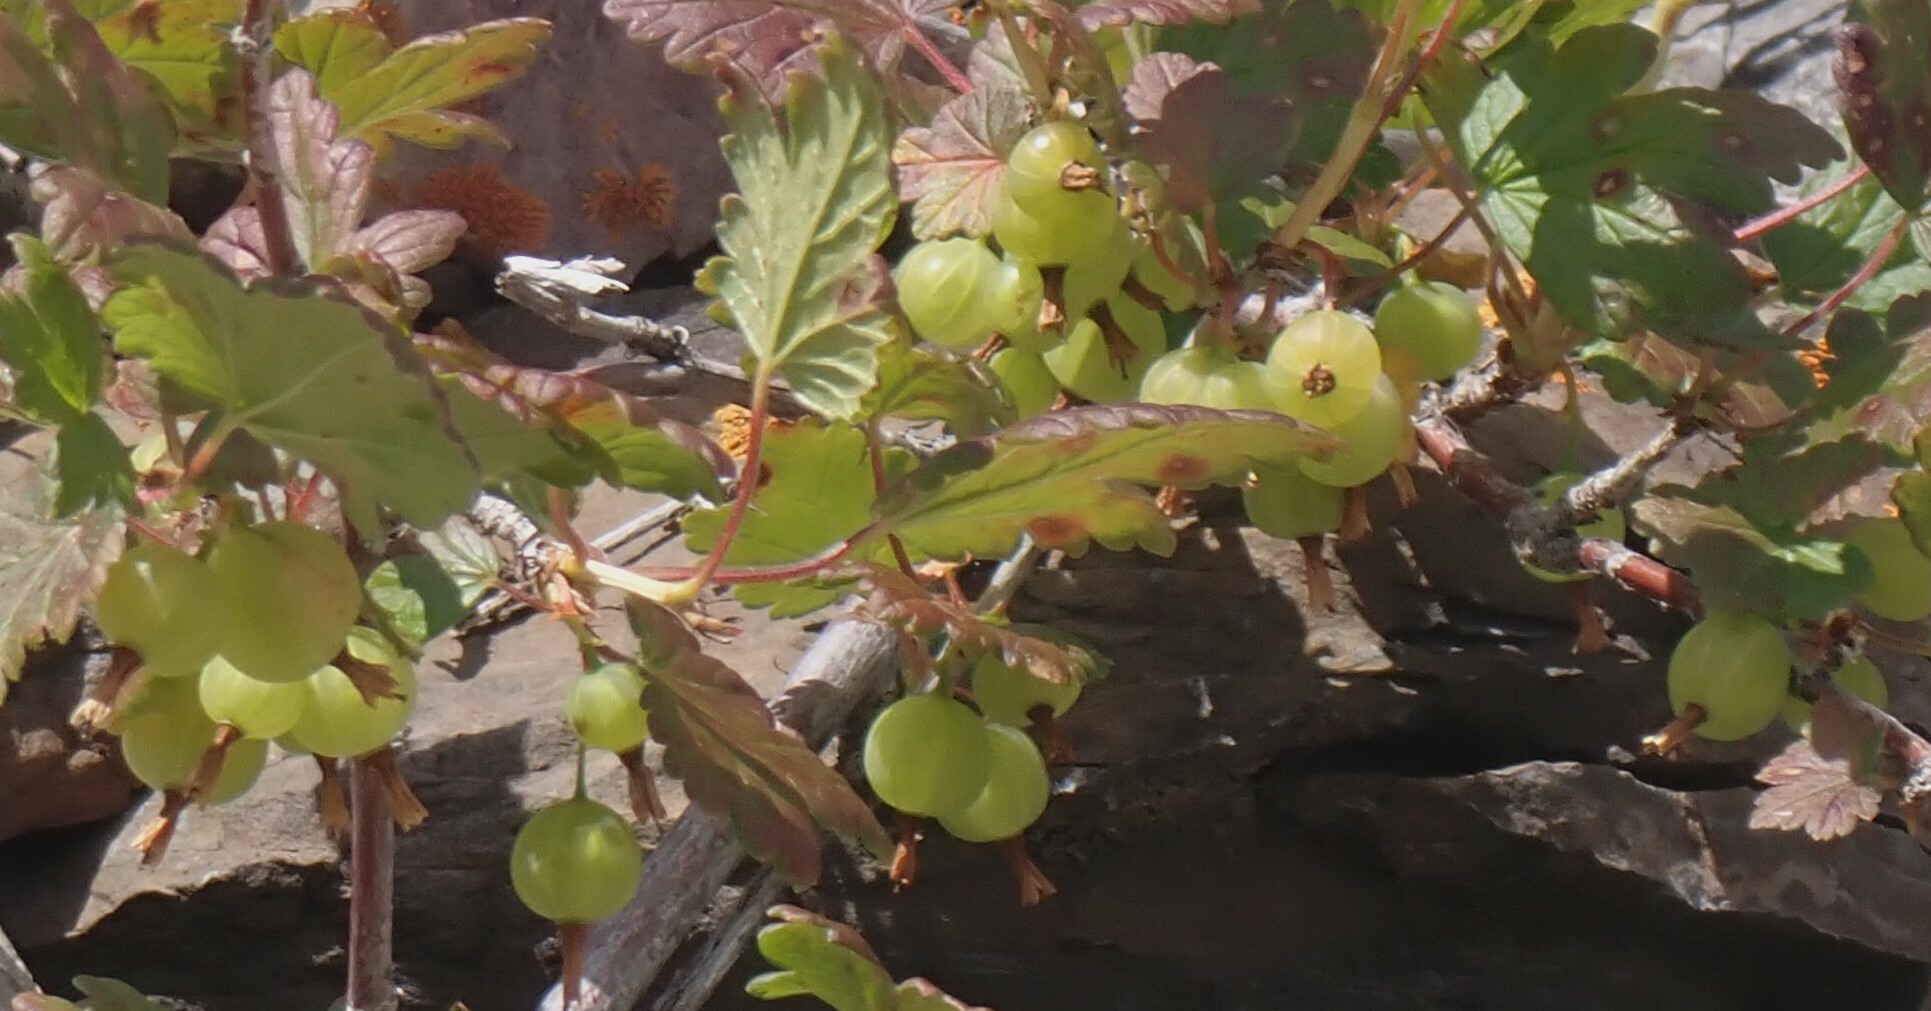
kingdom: Plantae
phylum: Tracheophyta
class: Magnoliopsida
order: Saxifragales
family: Grossulariaceae
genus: Ribes
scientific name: Ribes oxyacanthoides
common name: Northern gooseberry
